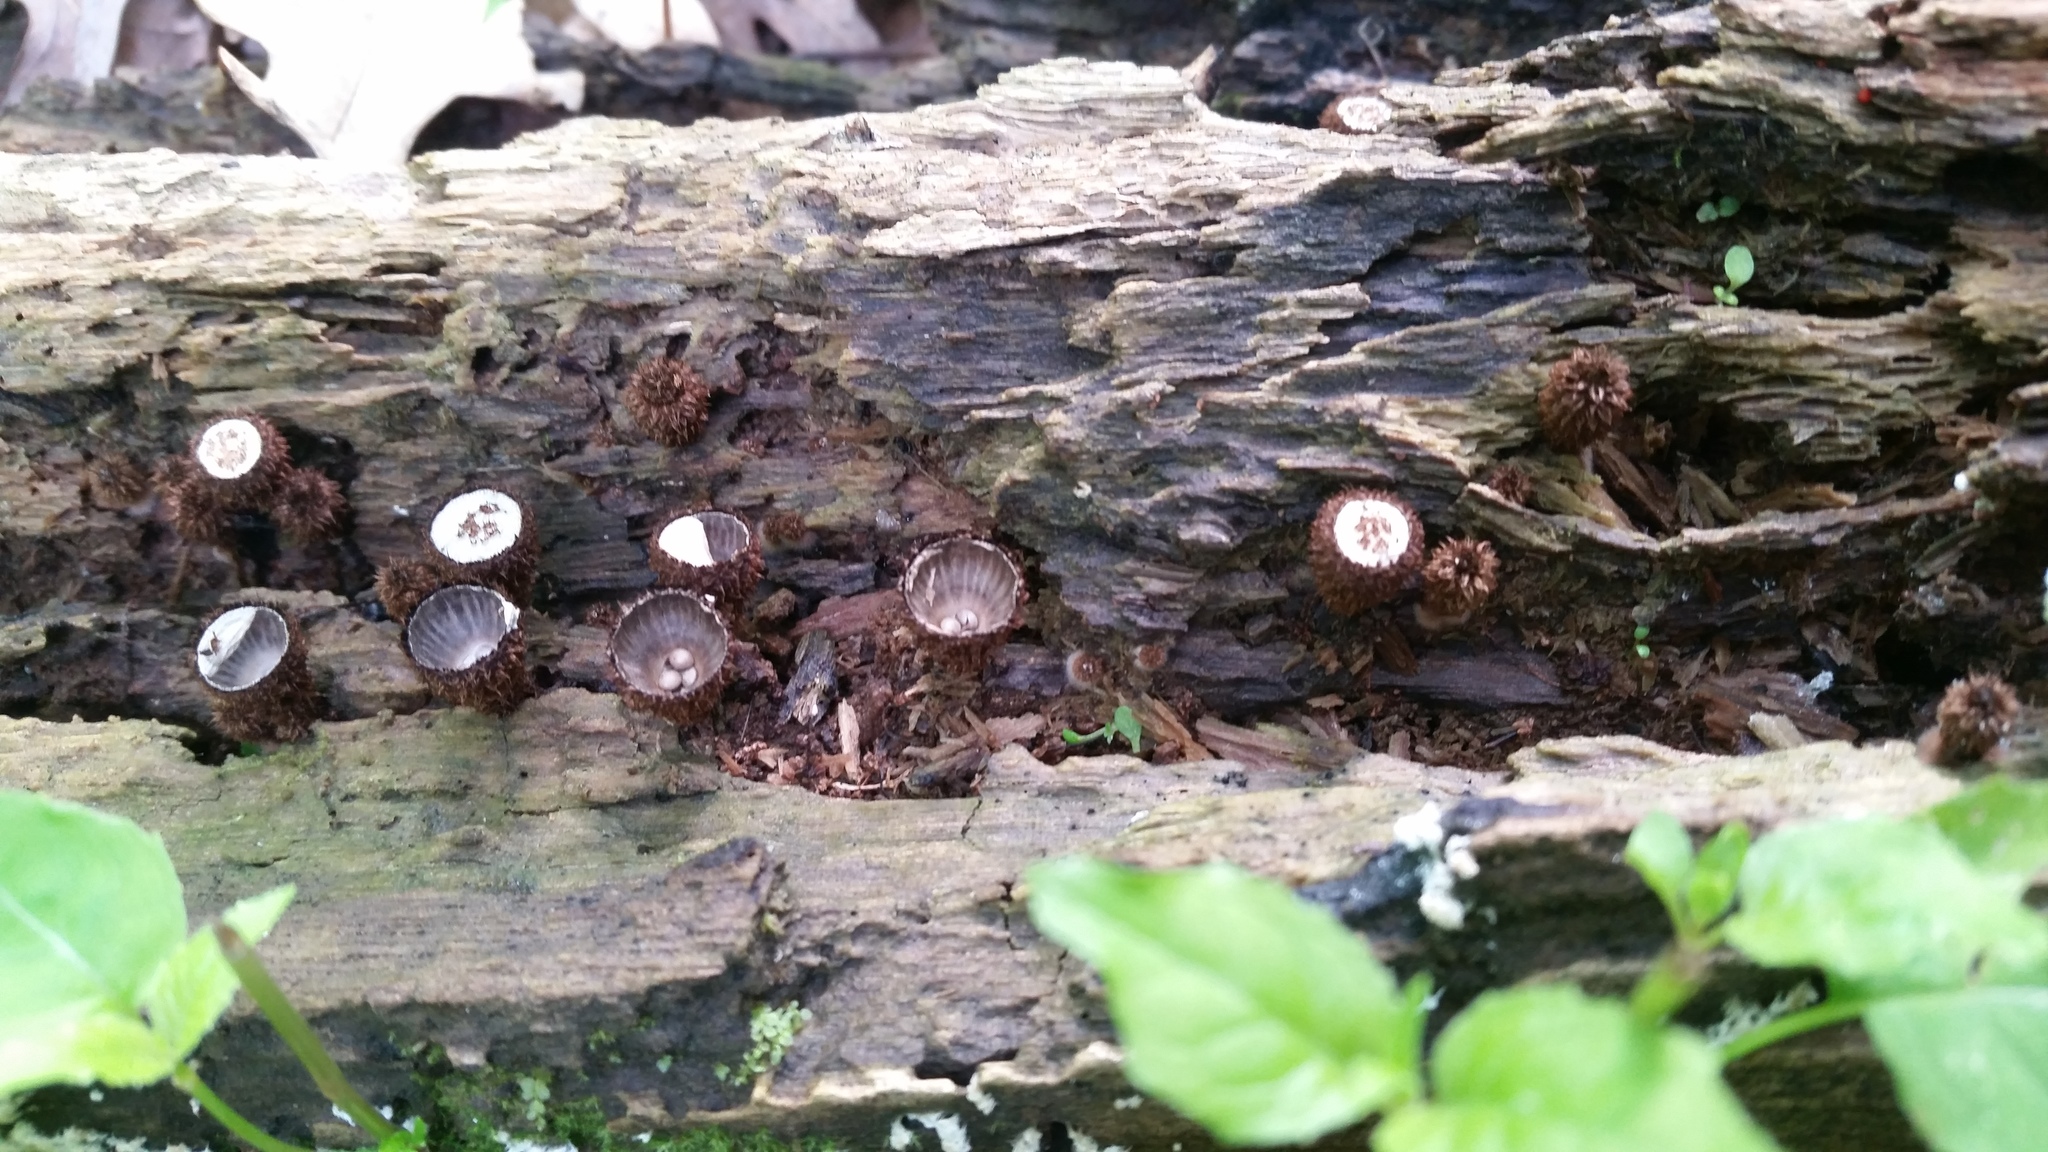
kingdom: Fungi
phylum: Basidiomycota
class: Agaricomycetes
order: Agaricales
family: Agaricaceae
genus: Cyathus
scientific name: Cyathus striatus
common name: Fluted bird's nest
